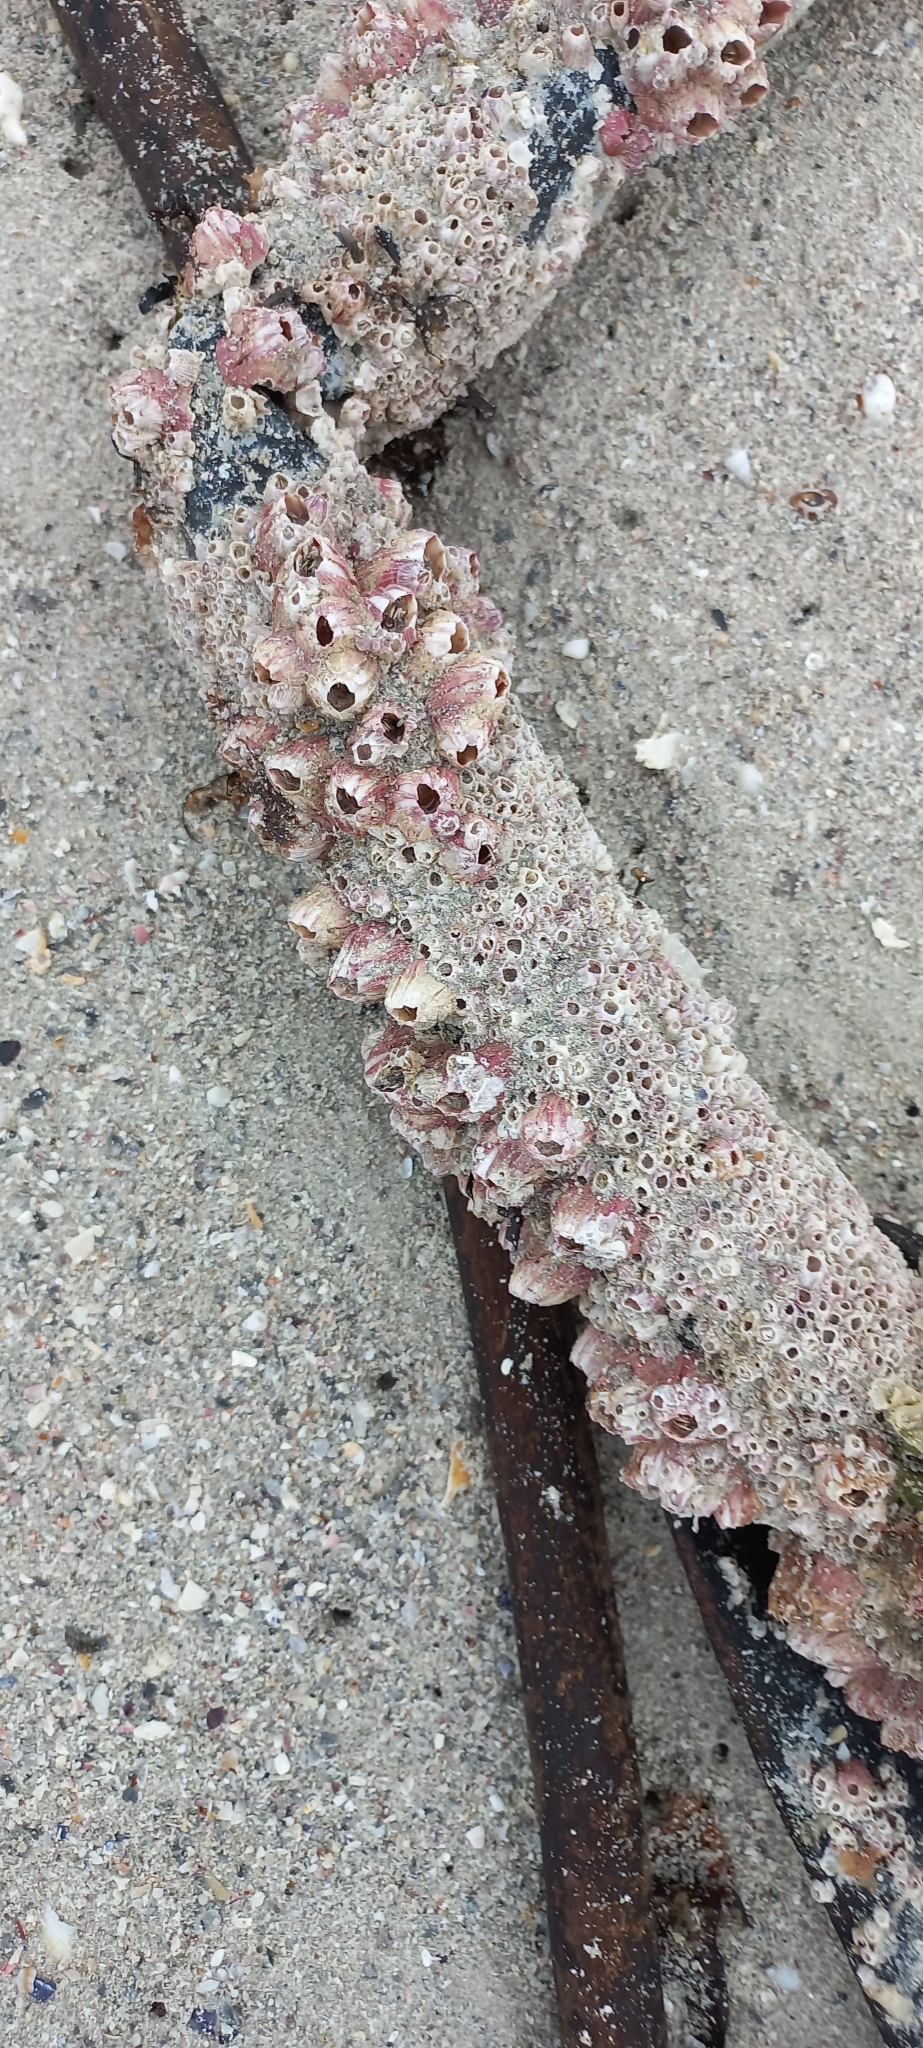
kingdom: Animalia
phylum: Arthropoda
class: Maxillopoda
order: Sessilia
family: Balanidae
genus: Amphibalanus
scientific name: Amphibalanus amphitrite
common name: Striped acorn barnacle
